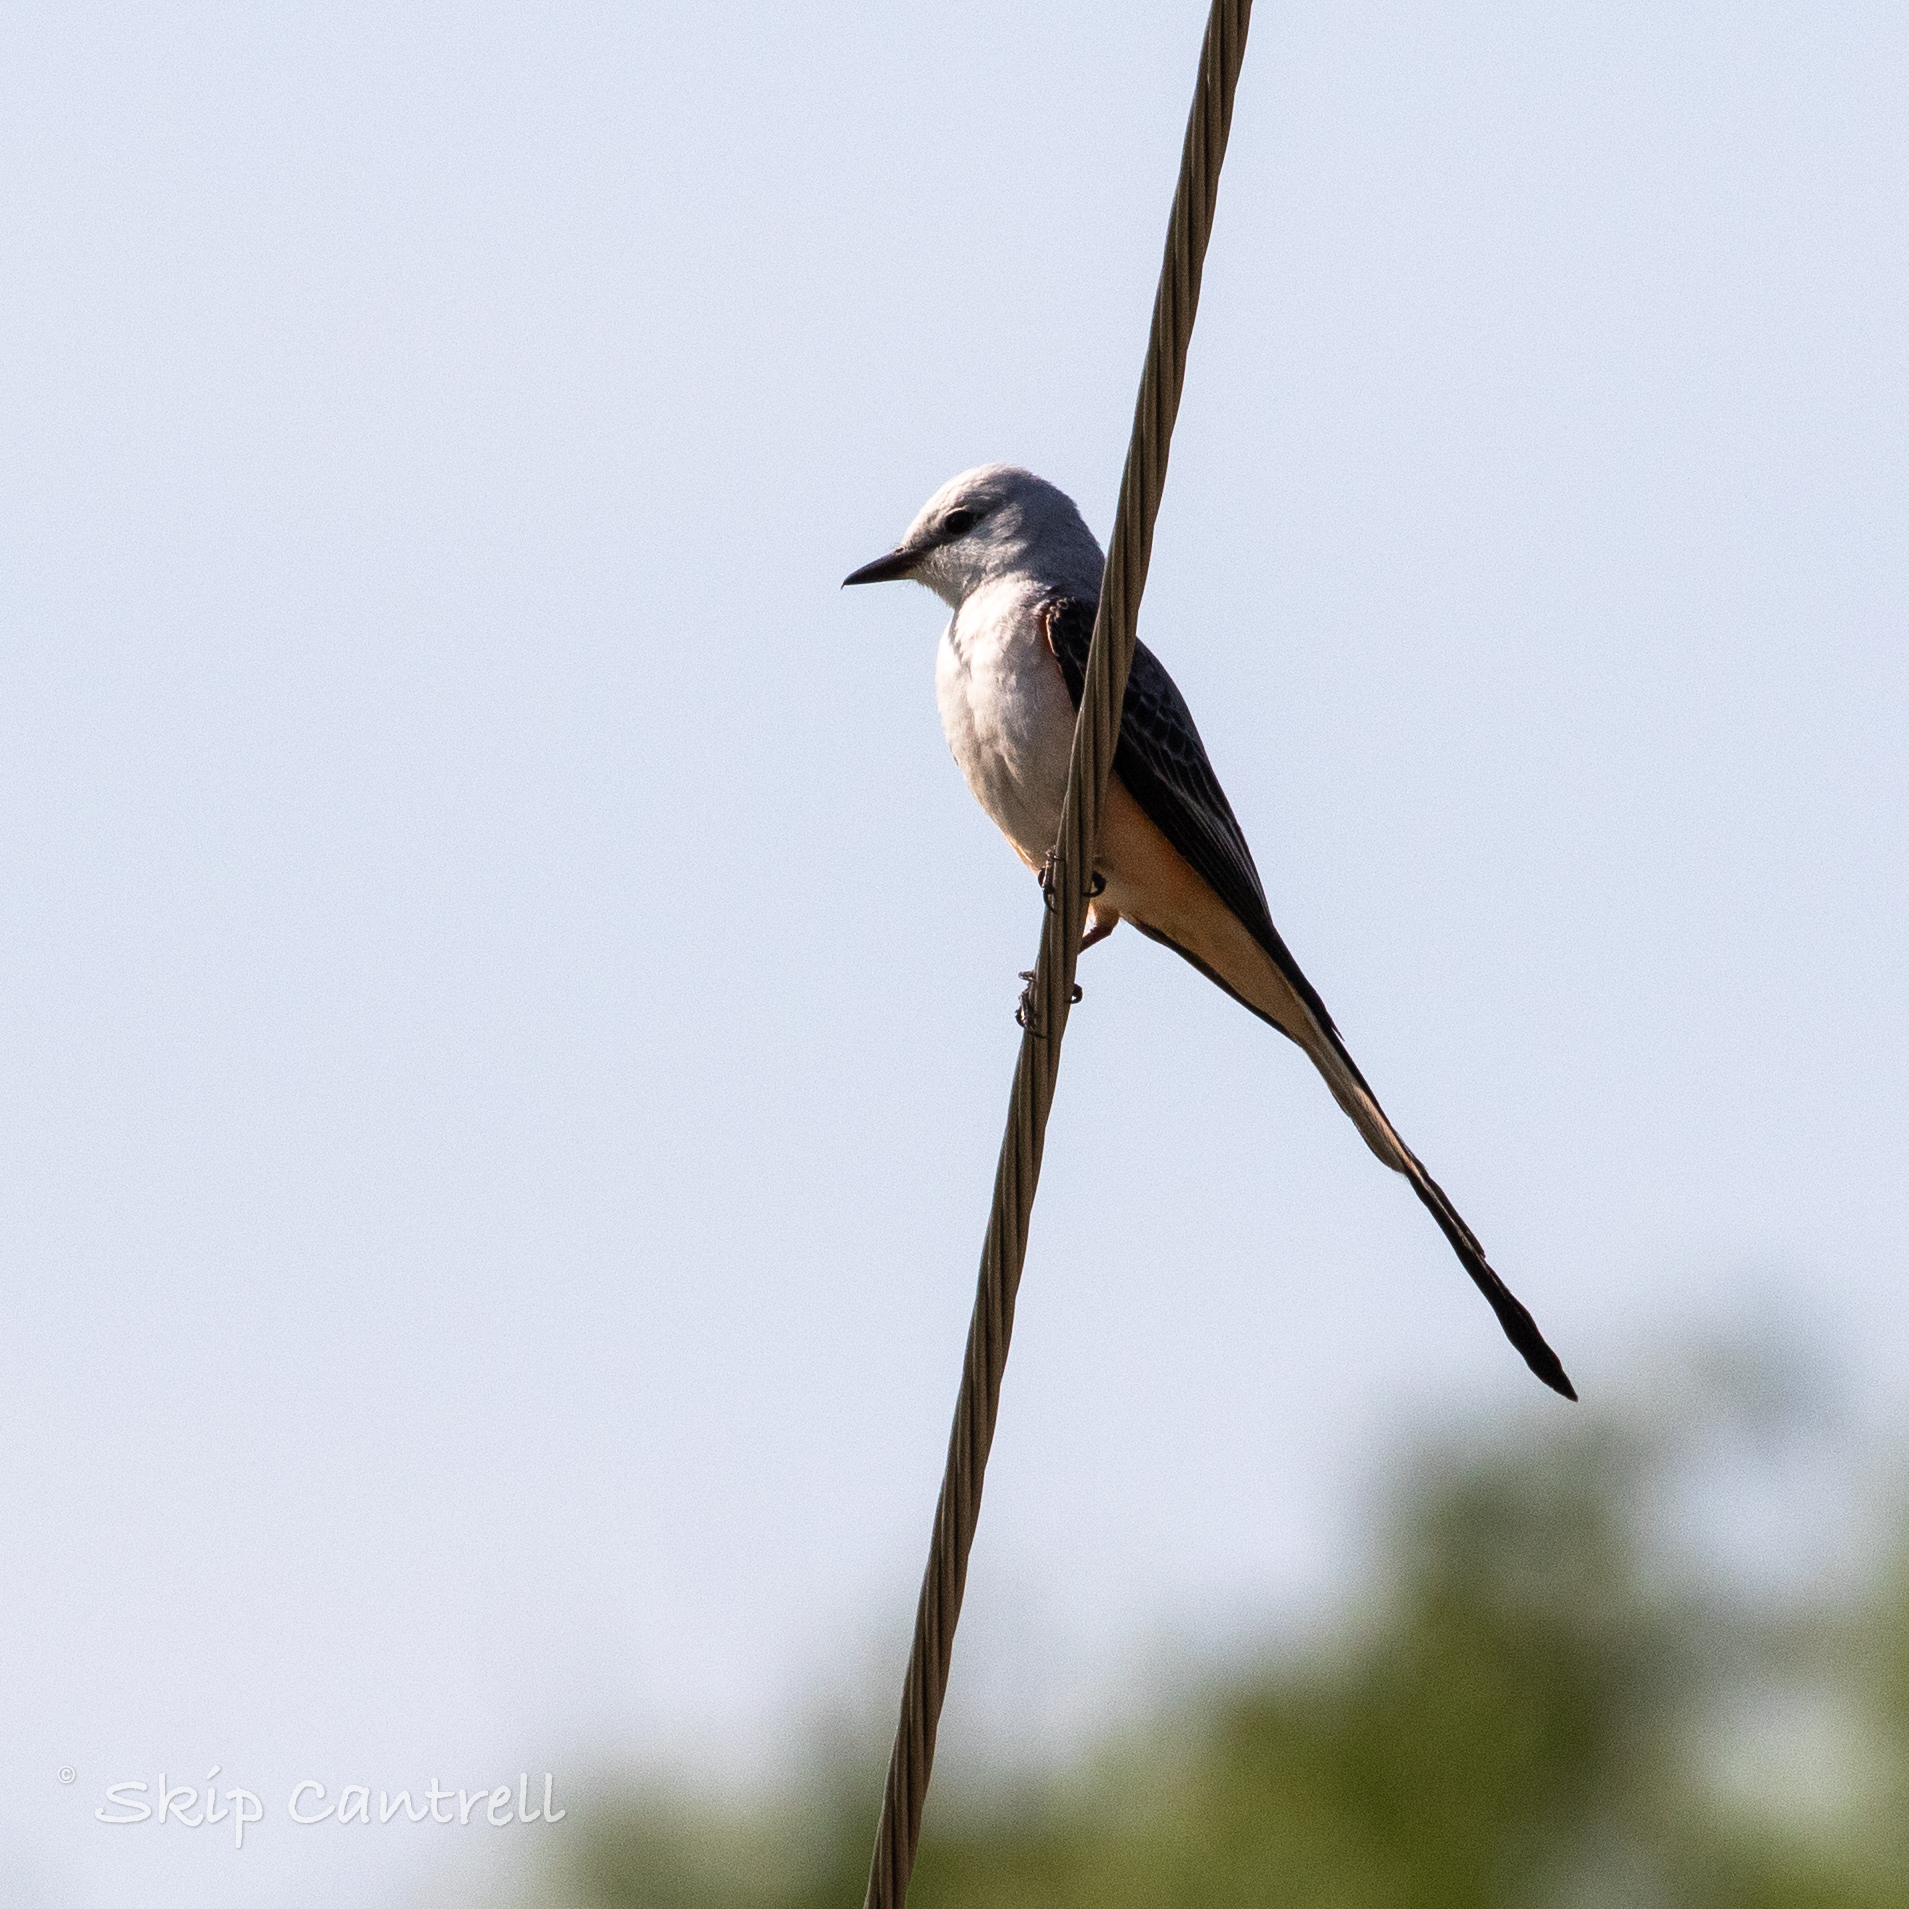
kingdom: Animalia
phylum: Chordata
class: Aves
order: Passeriformes
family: Tyrannidae
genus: Tyrannus
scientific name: Tyrannus forficatus
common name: Scissor-tailed flycatcher
